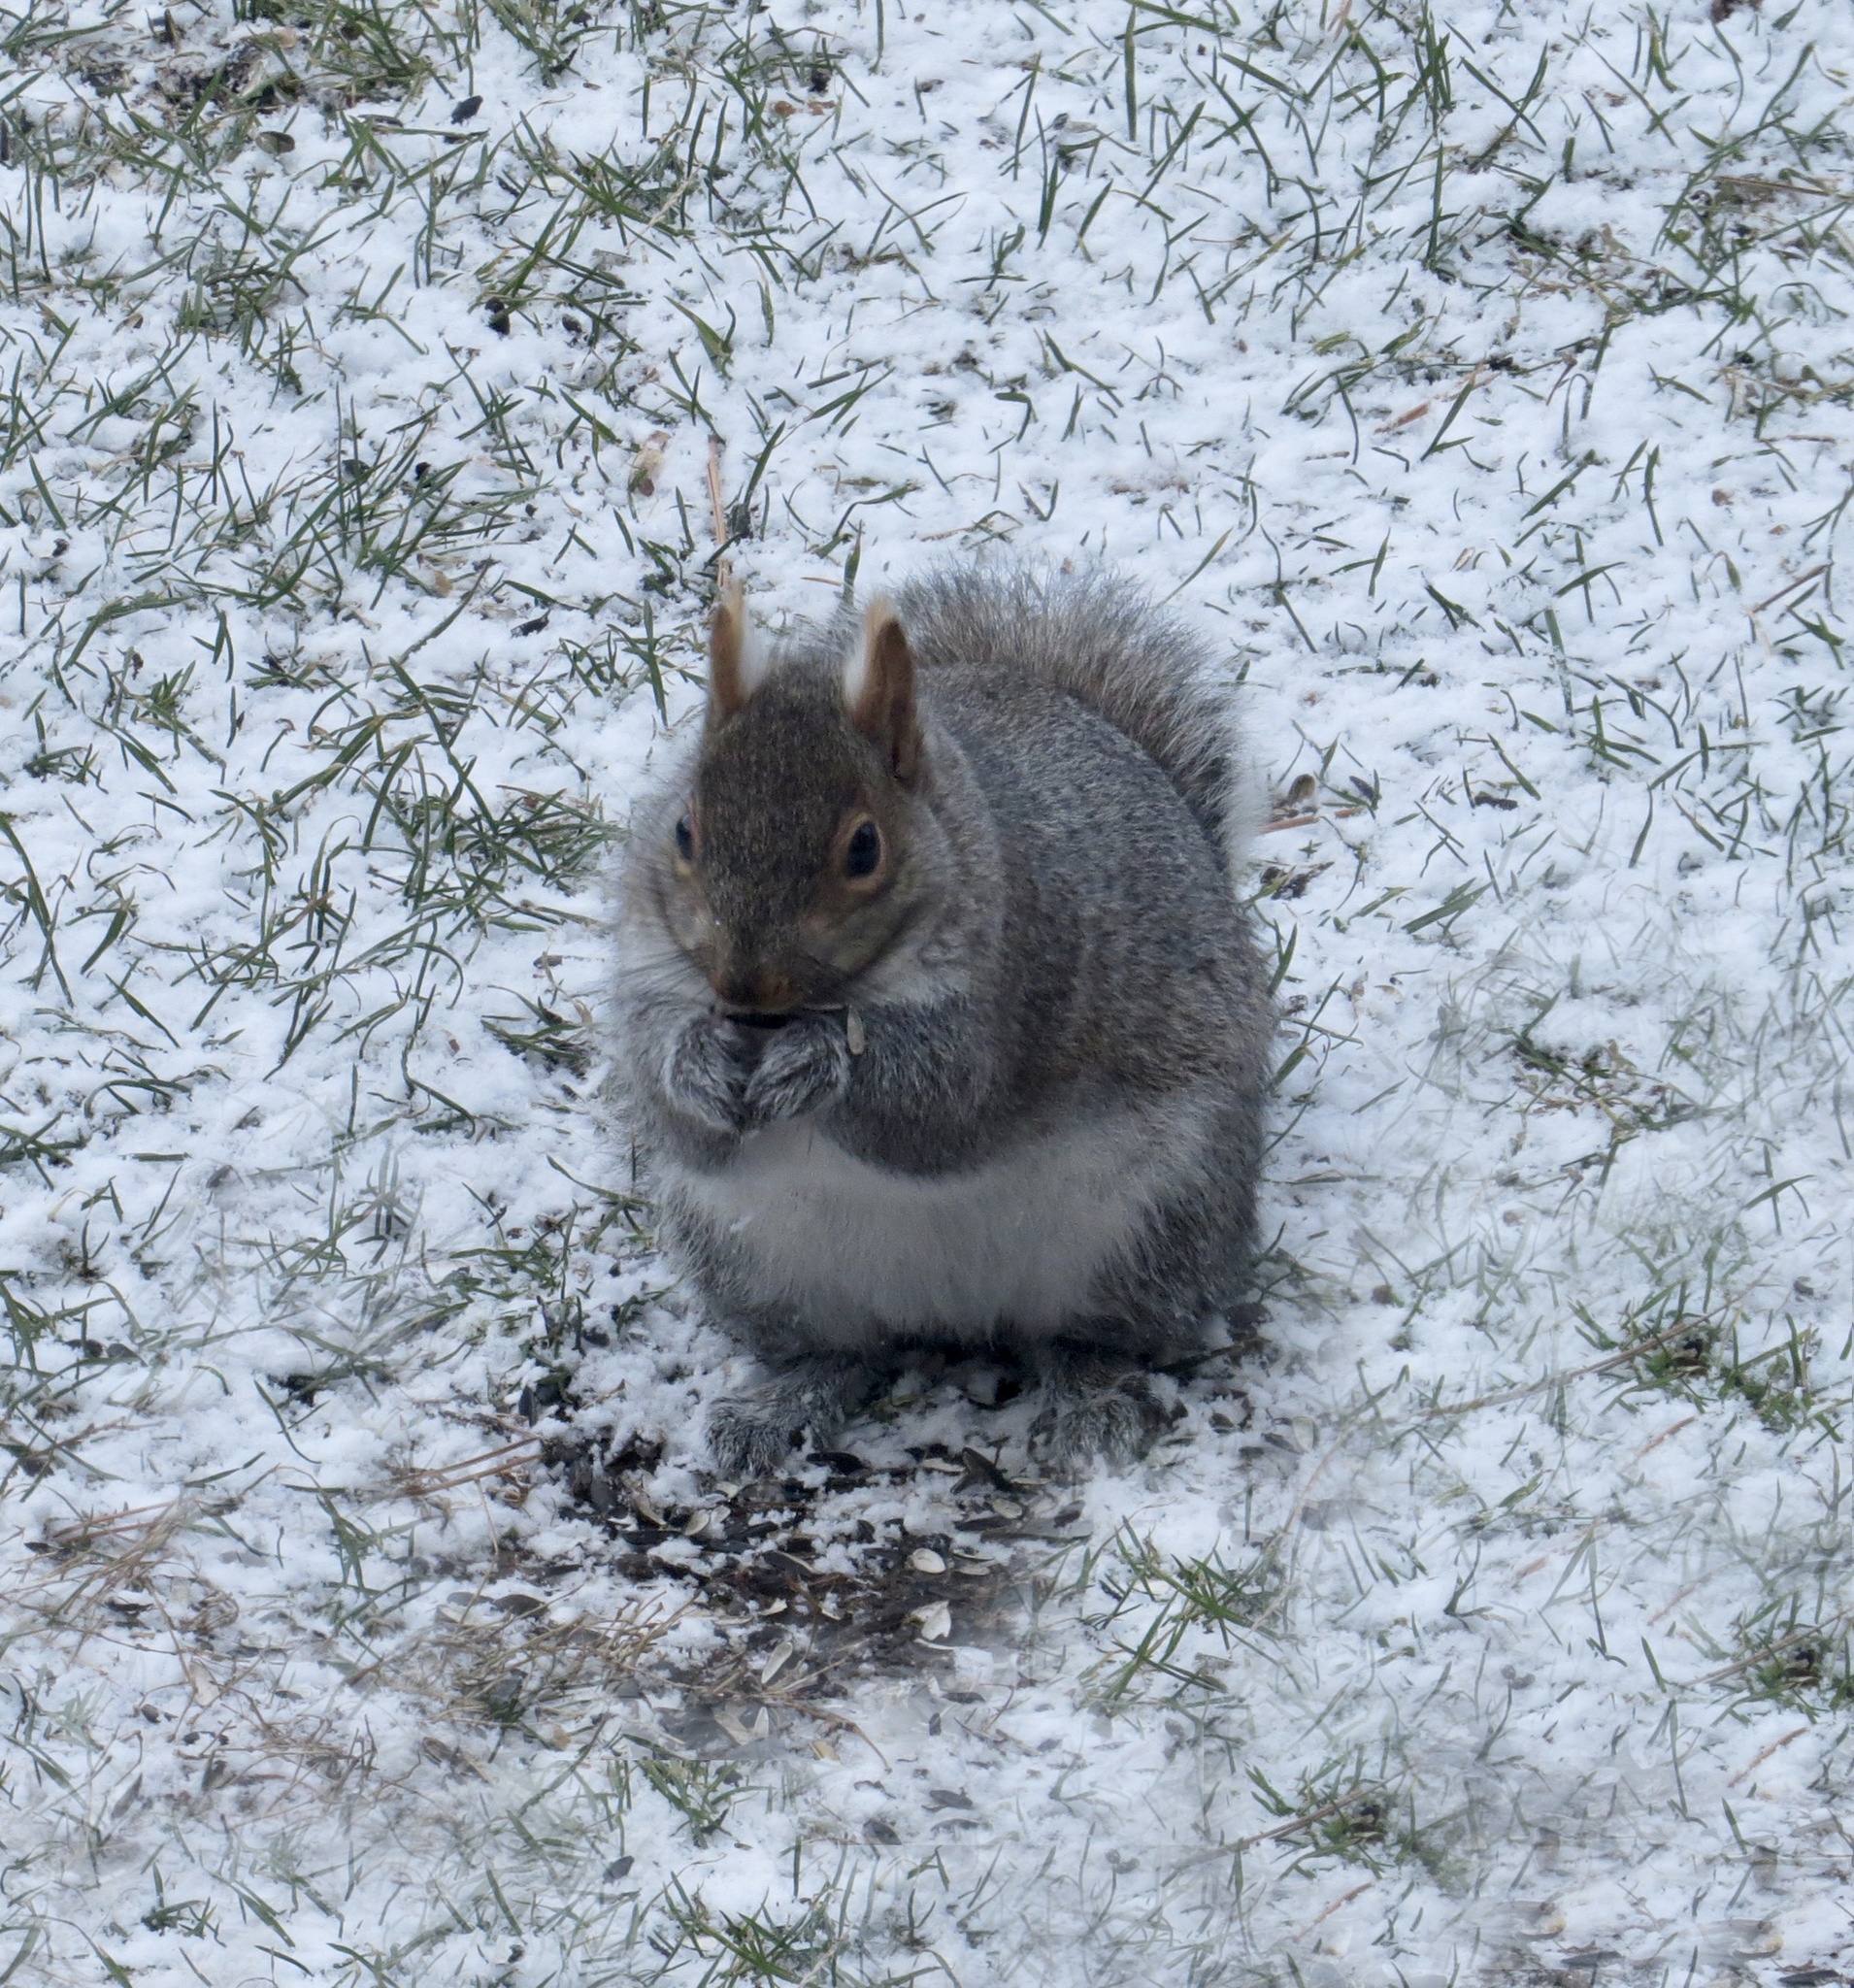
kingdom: Animalia
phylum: Chordata
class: Mammalia
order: Rodentia
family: Sciuridae
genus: Sciurus
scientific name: Sciurus carolinensis
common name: Eastern gray squirrel
